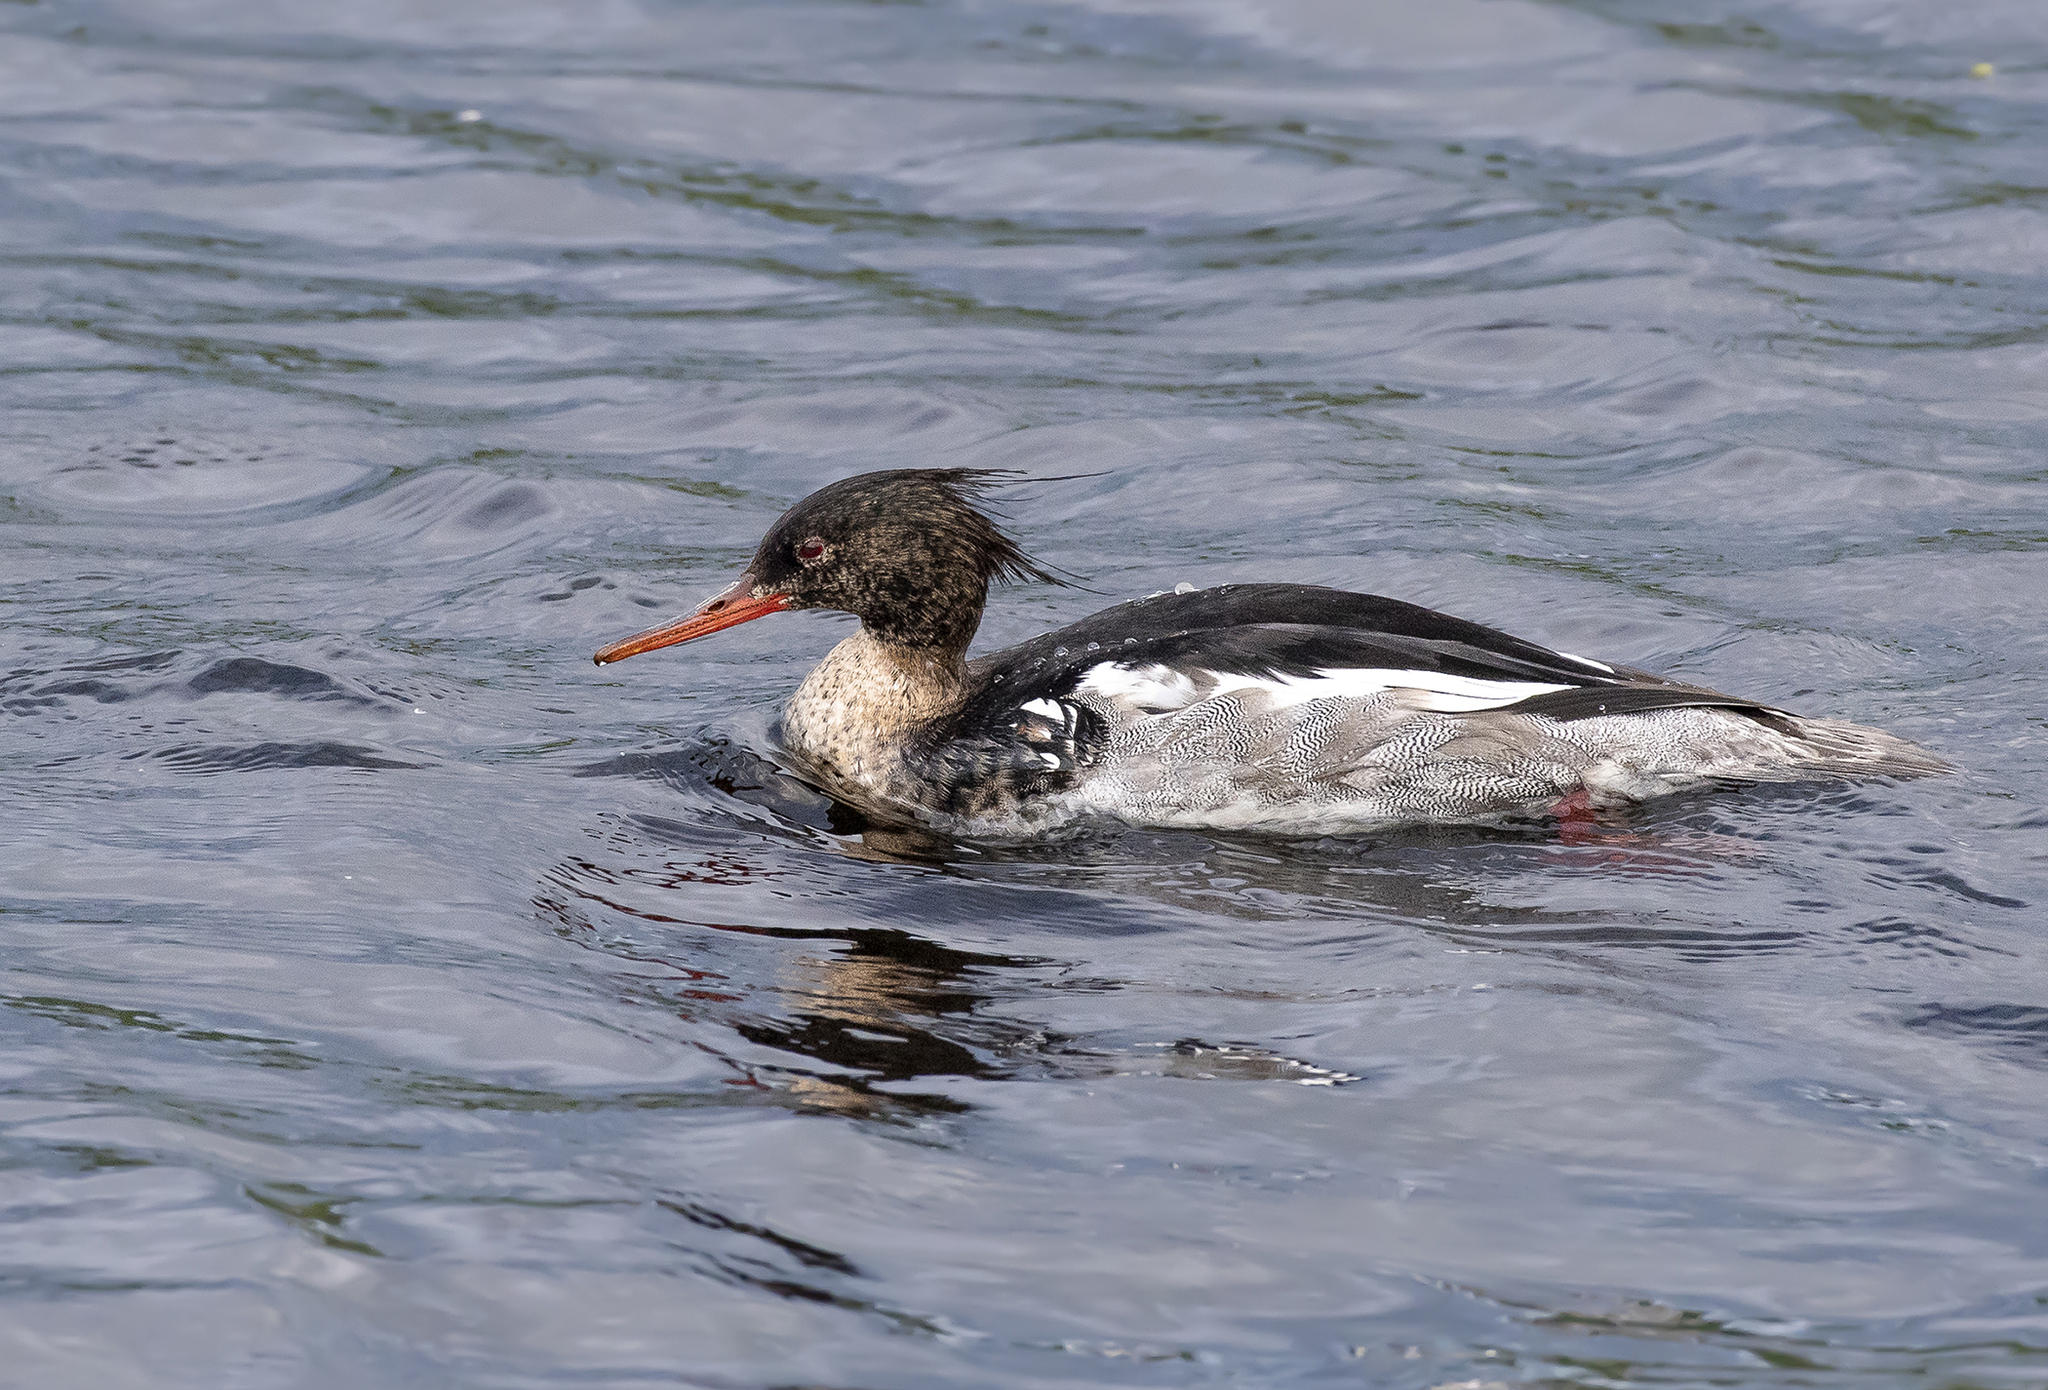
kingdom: Animalia
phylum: Chordata
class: Aves
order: Anseriformes
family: Anatidae
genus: Mergus
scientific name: Mergus serrator
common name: Red-breasted merganser
